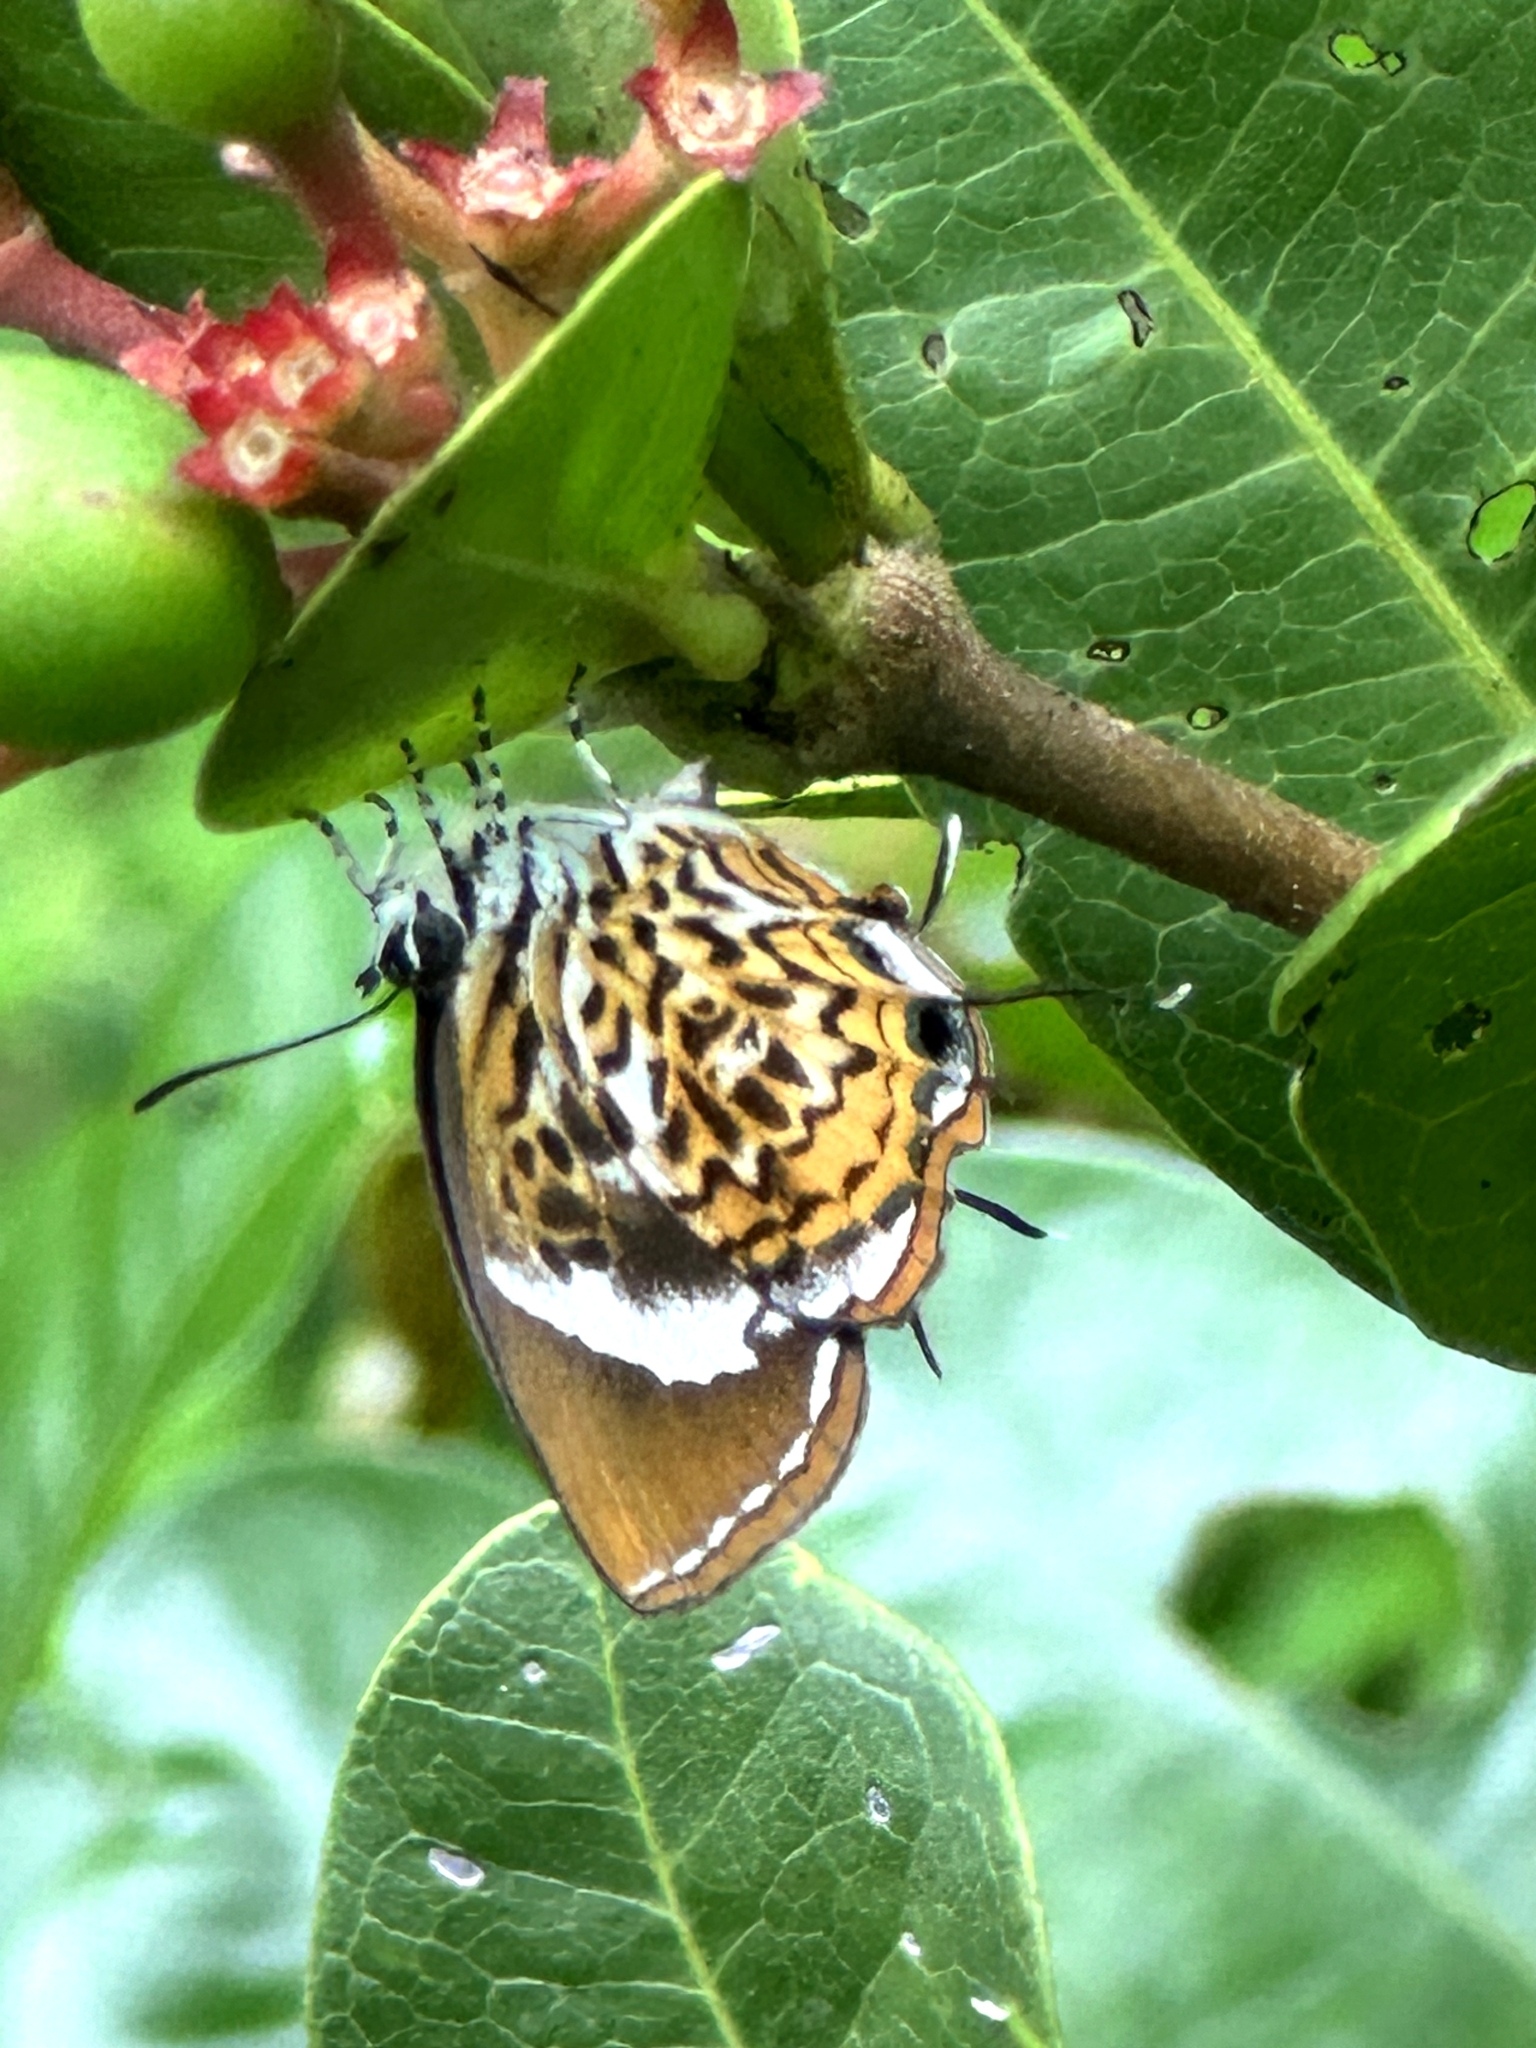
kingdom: Animalia
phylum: Arthropoda
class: Insecta
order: Lepidoptera
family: Lycaenidae
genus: Rathinda
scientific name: Rathinda amor
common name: Monkey puzzle
